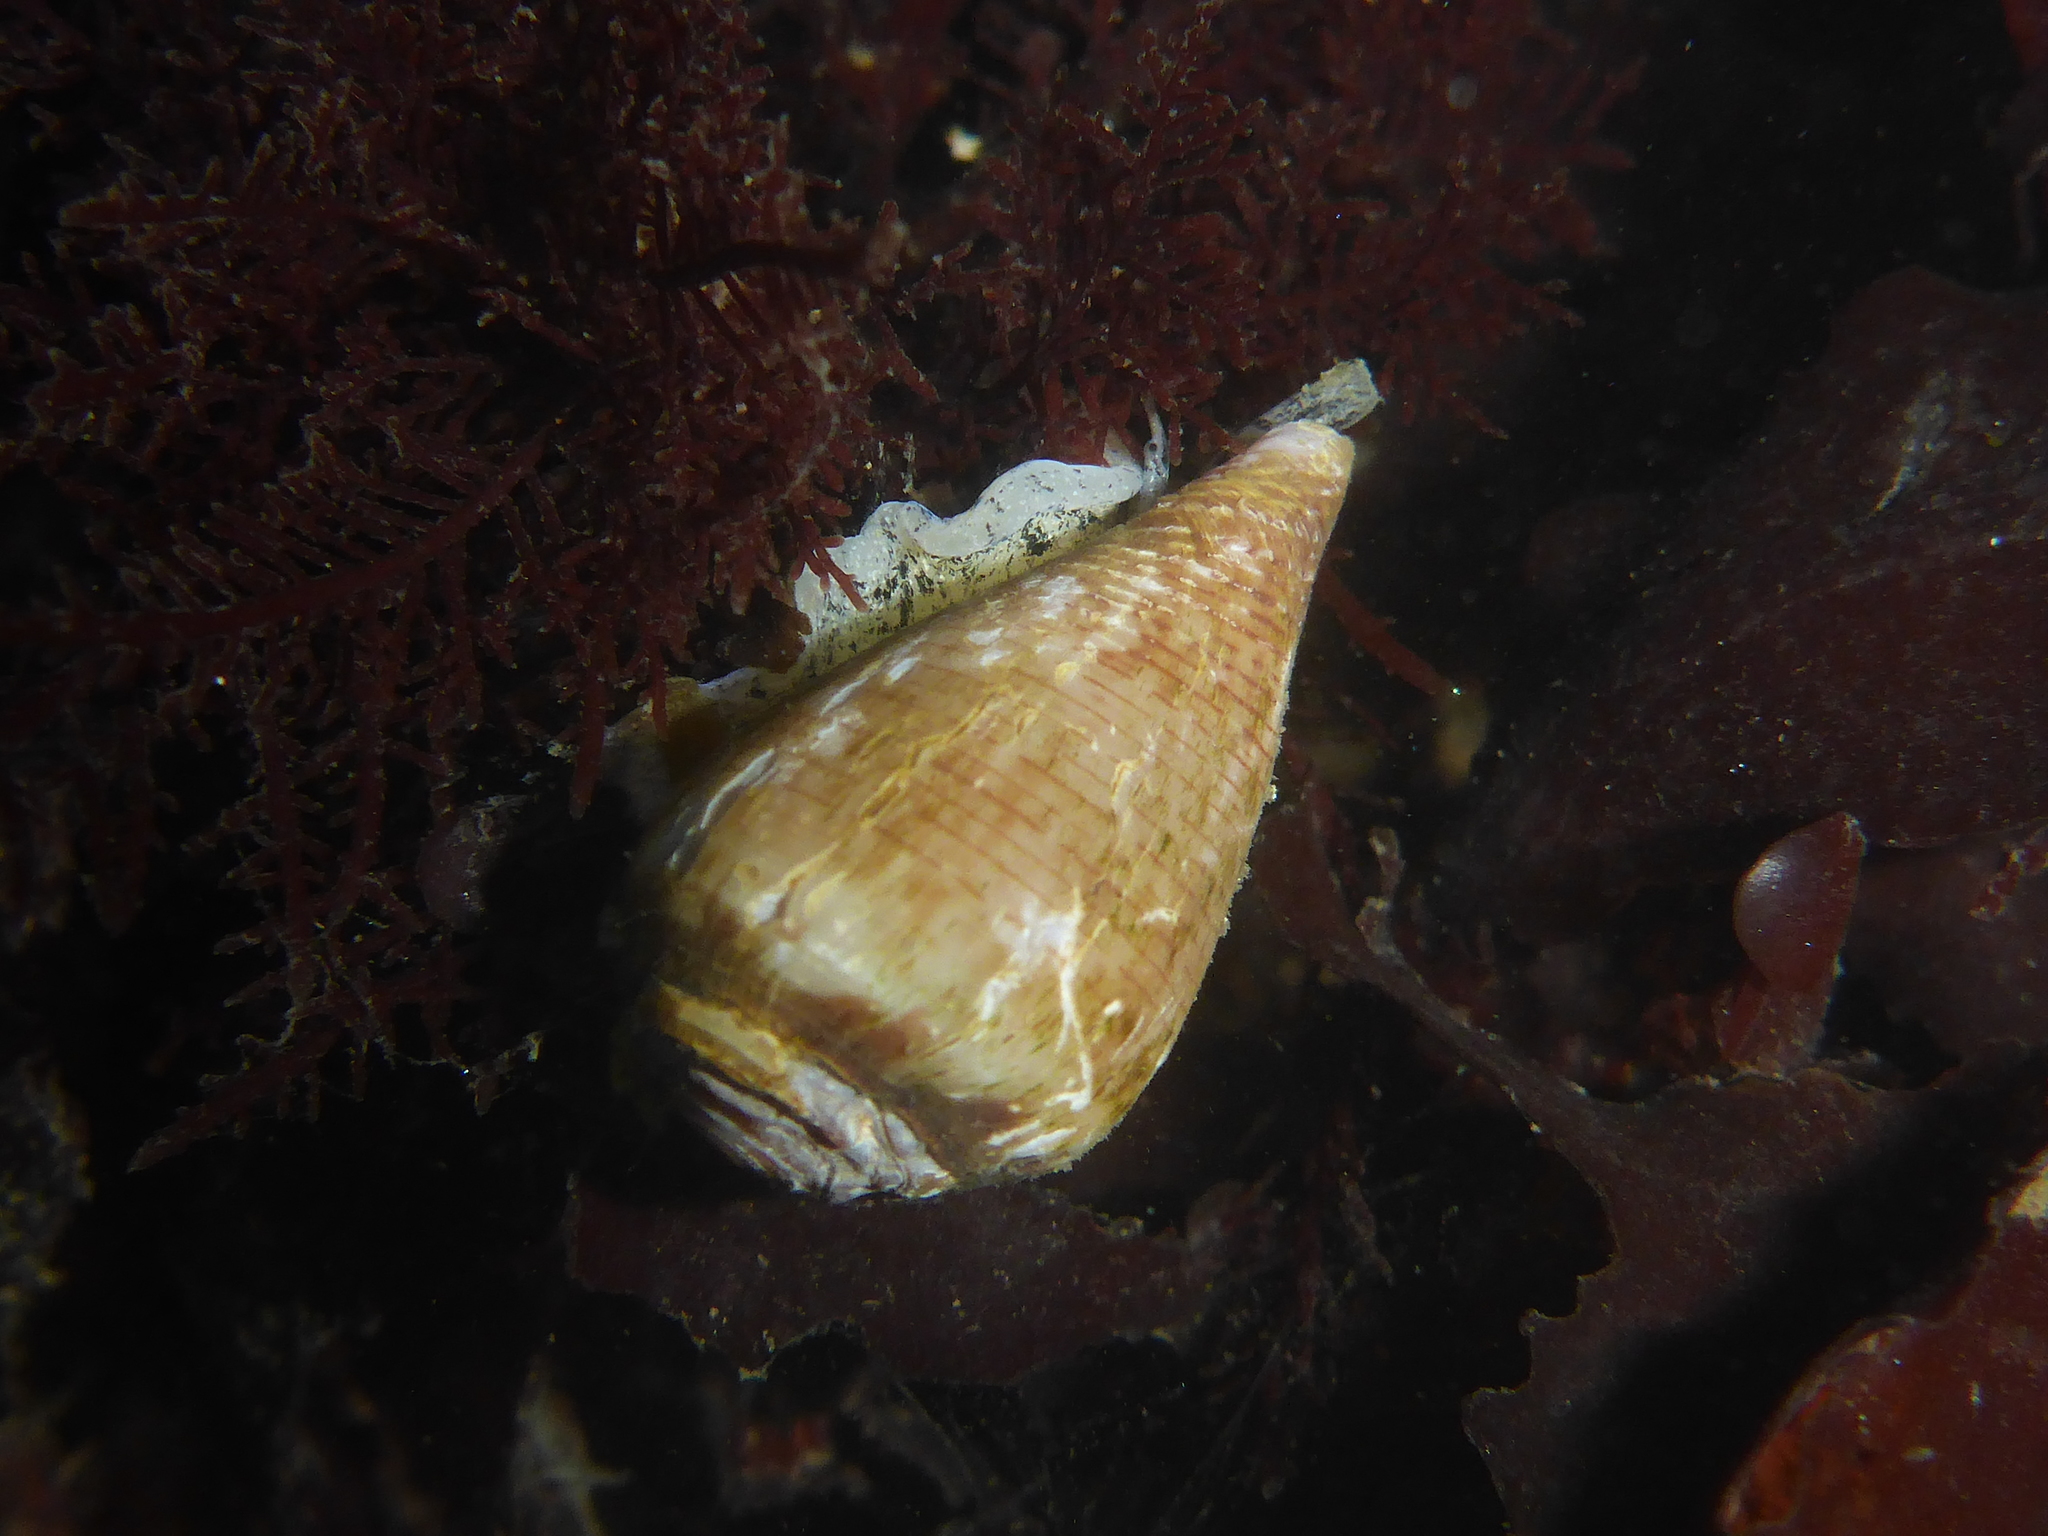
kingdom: Animalia
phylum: Mollusca
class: Gastropoda
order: Neogastropoda
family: Conidae
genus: Californiconus
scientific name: Californiconus californicus
